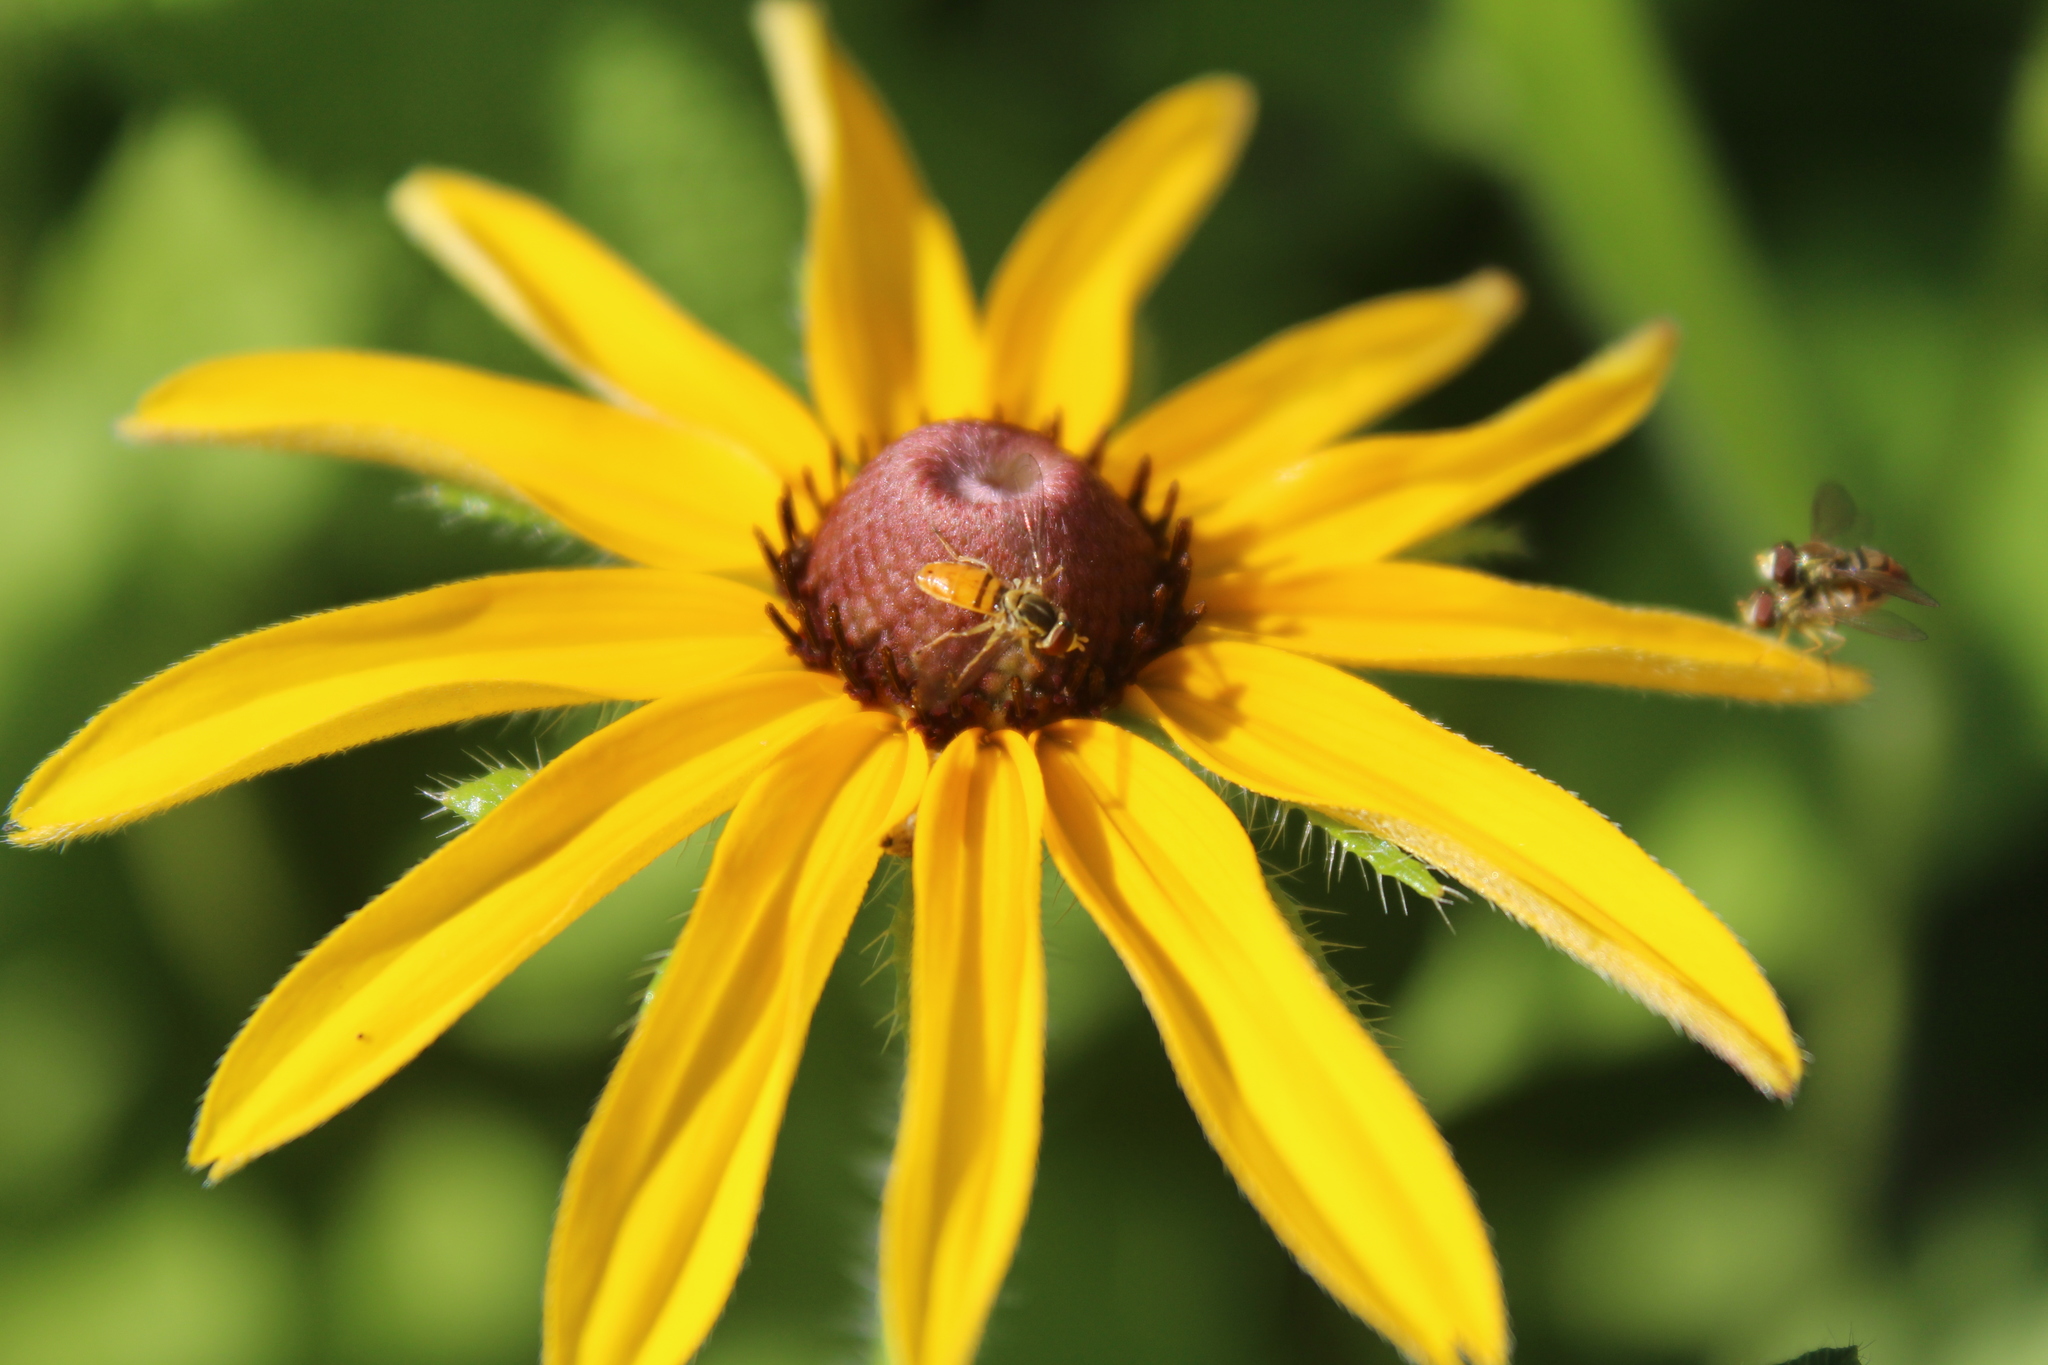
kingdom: Animalia
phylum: Arthropoda
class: Insecta
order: Diptera
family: Syrphidae
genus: Toxomerus
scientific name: Toxomerus marginatus
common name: Syrphid fly
